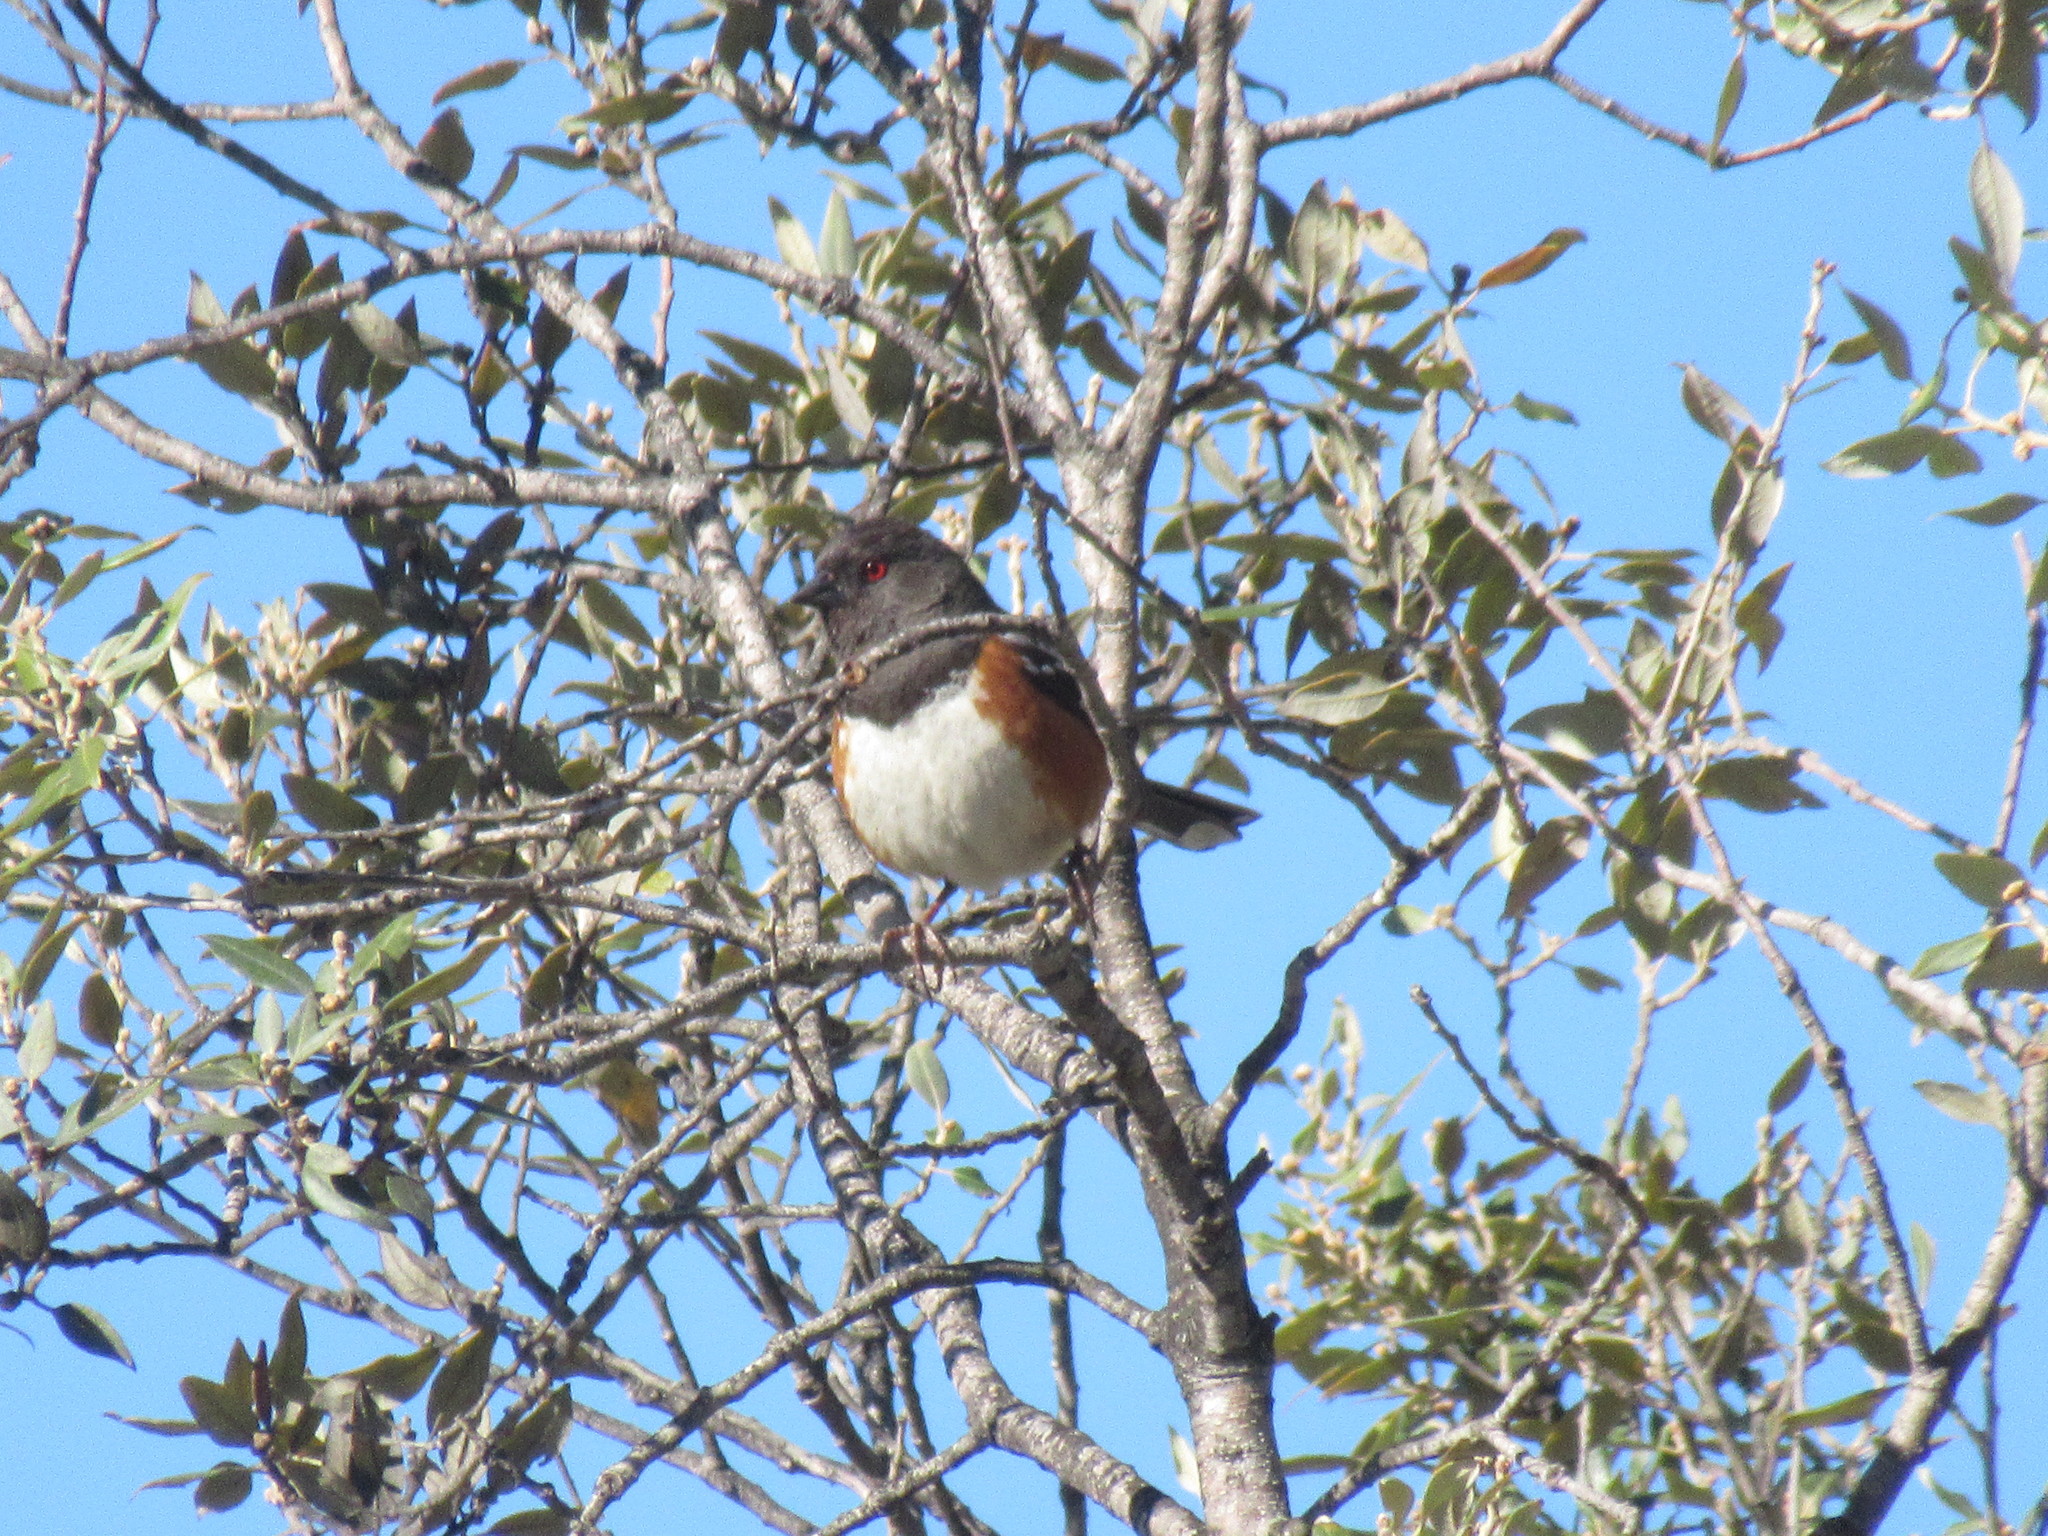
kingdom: Animalia
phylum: Chordata
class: Aves
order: Passeriformes
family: Passerellidae
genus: Pipilo
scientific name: Pipilo maculatus
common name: Spotted towhee
